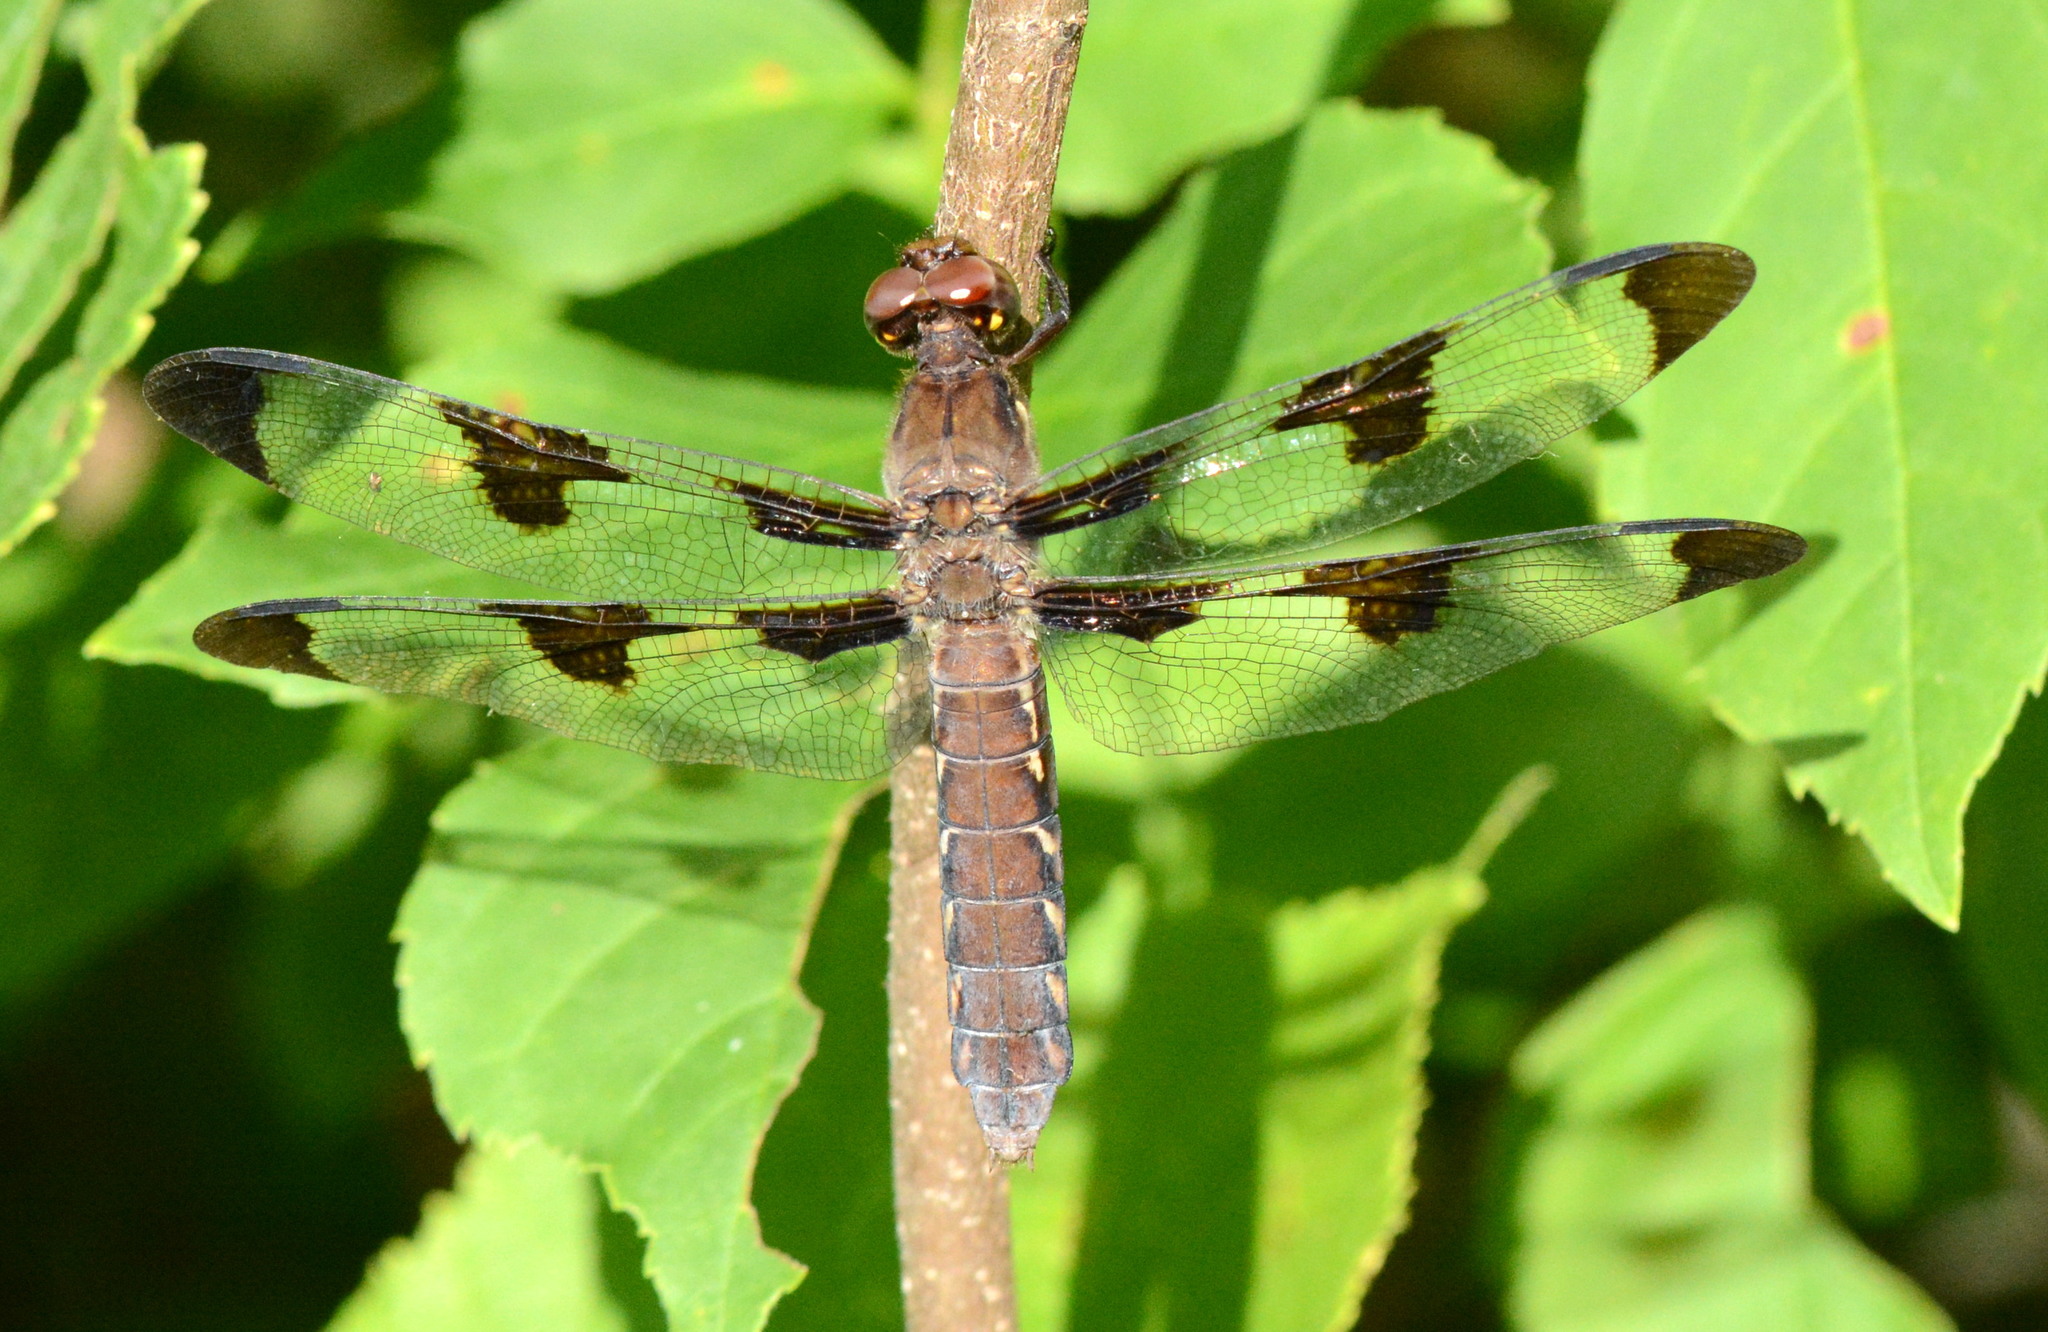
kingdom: Animalia
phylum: Arthropoda
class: Insecta
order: Odonata
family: Libellulidae
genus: Plathemis
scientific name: Plathemis lydia
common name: Common whitetail
